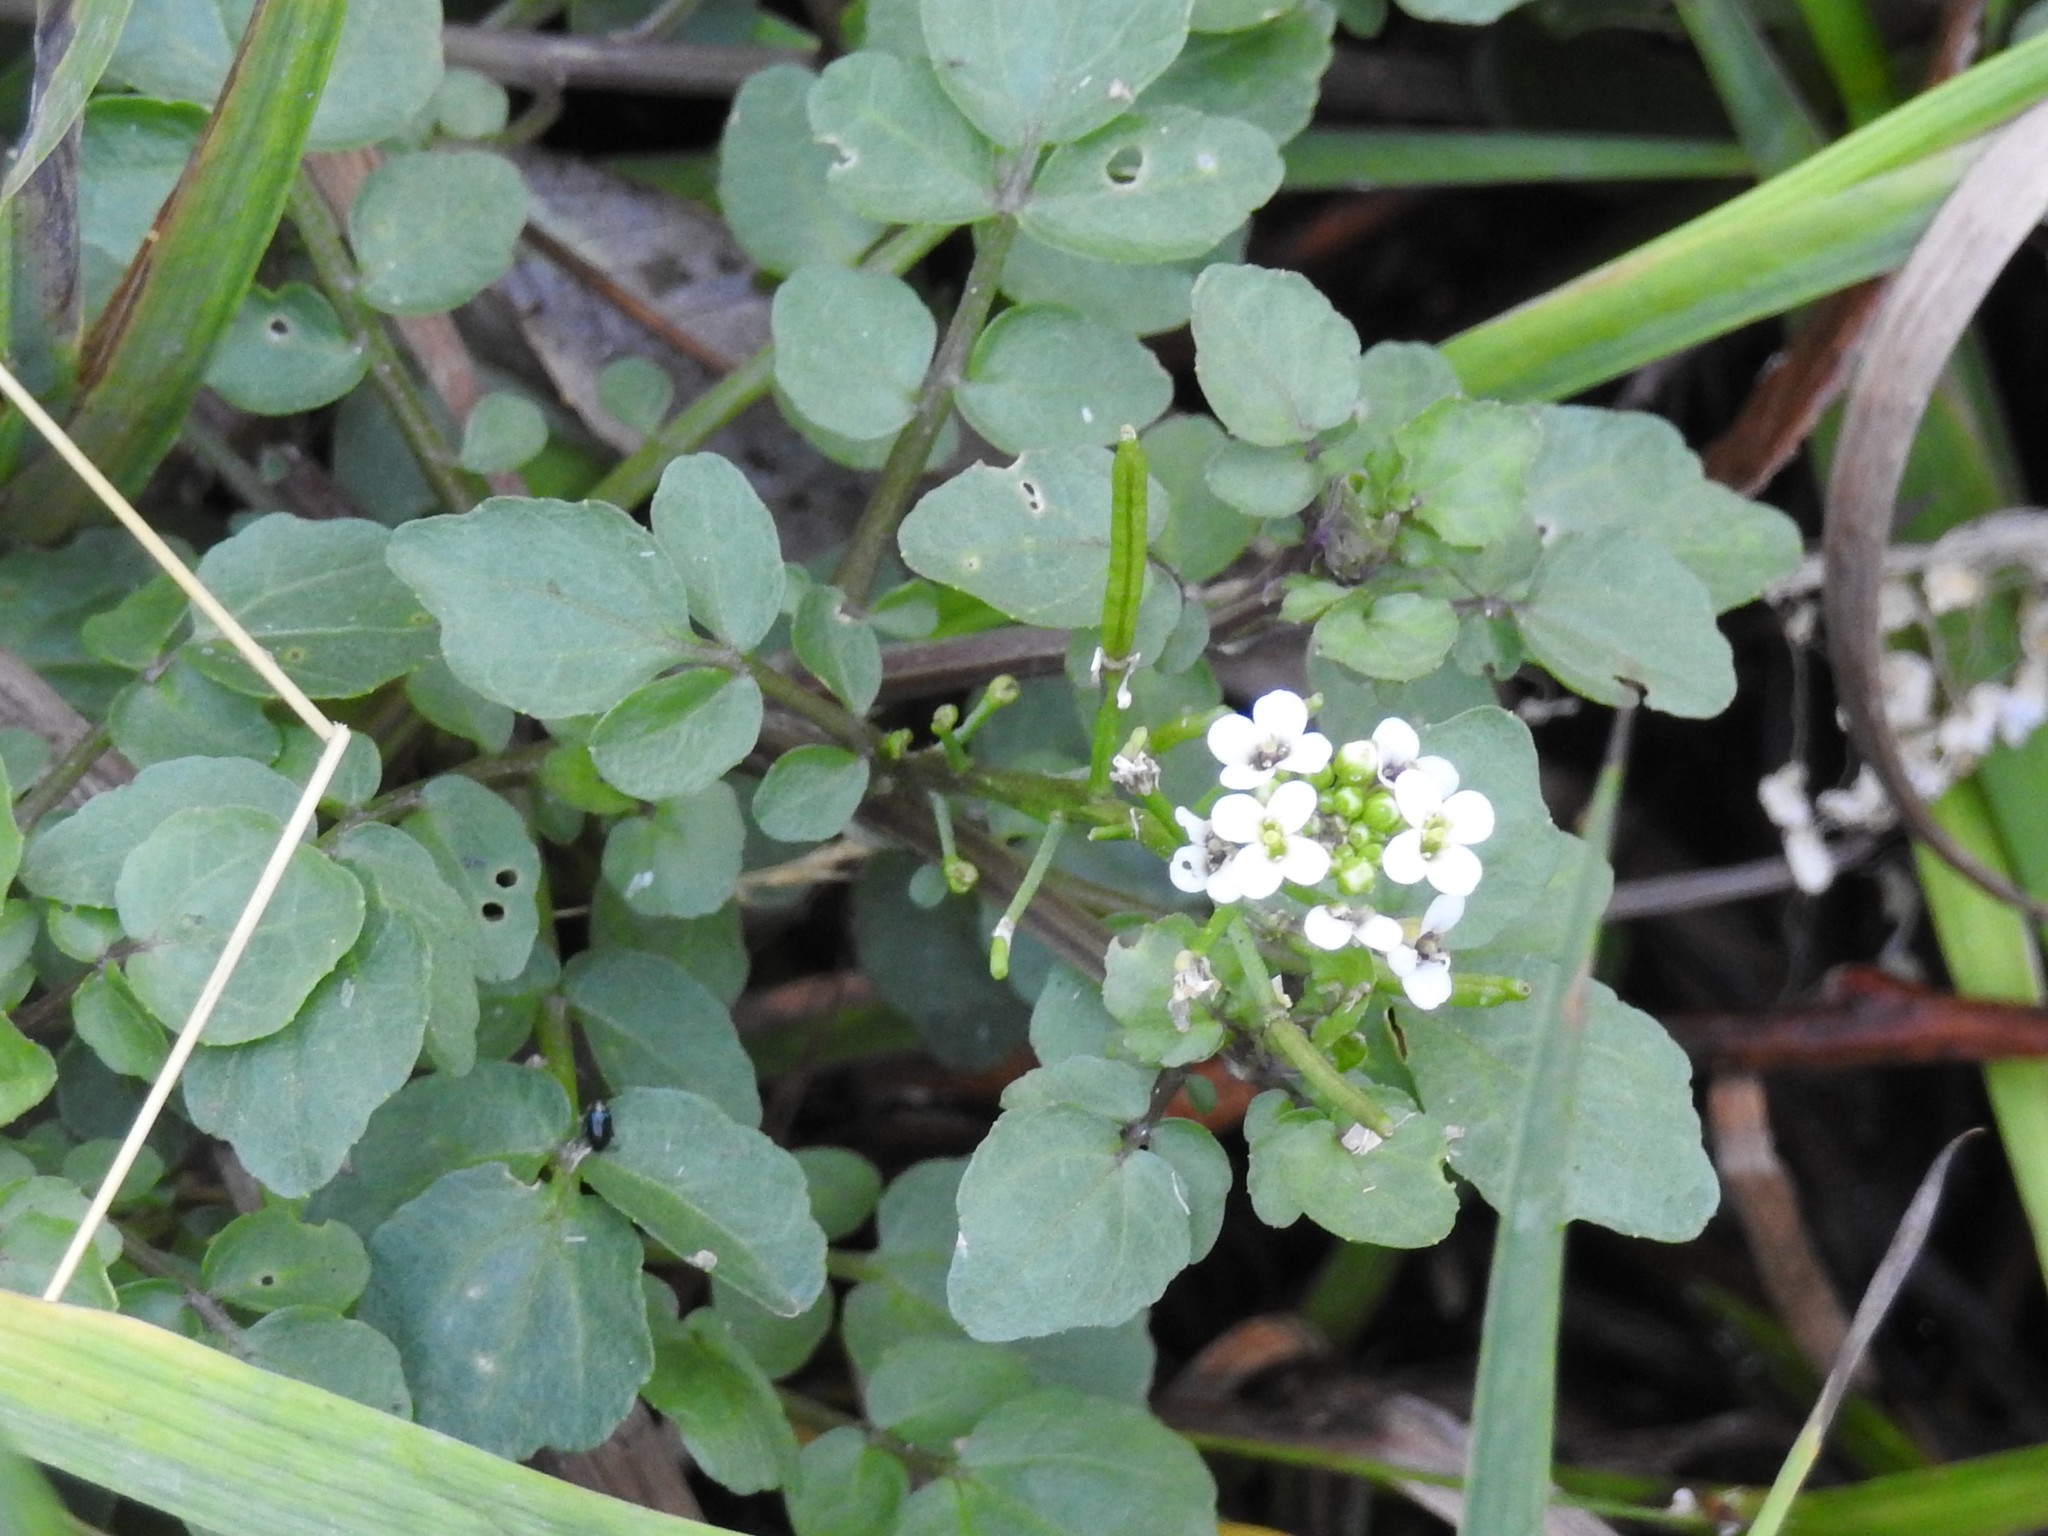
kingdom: Plantae
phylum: Tracheophyta
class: Magnoliopsida
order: Brassicales
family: Brassicaceae
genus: Nasturtium
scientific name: Nasturtium officinale
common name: Watercress
